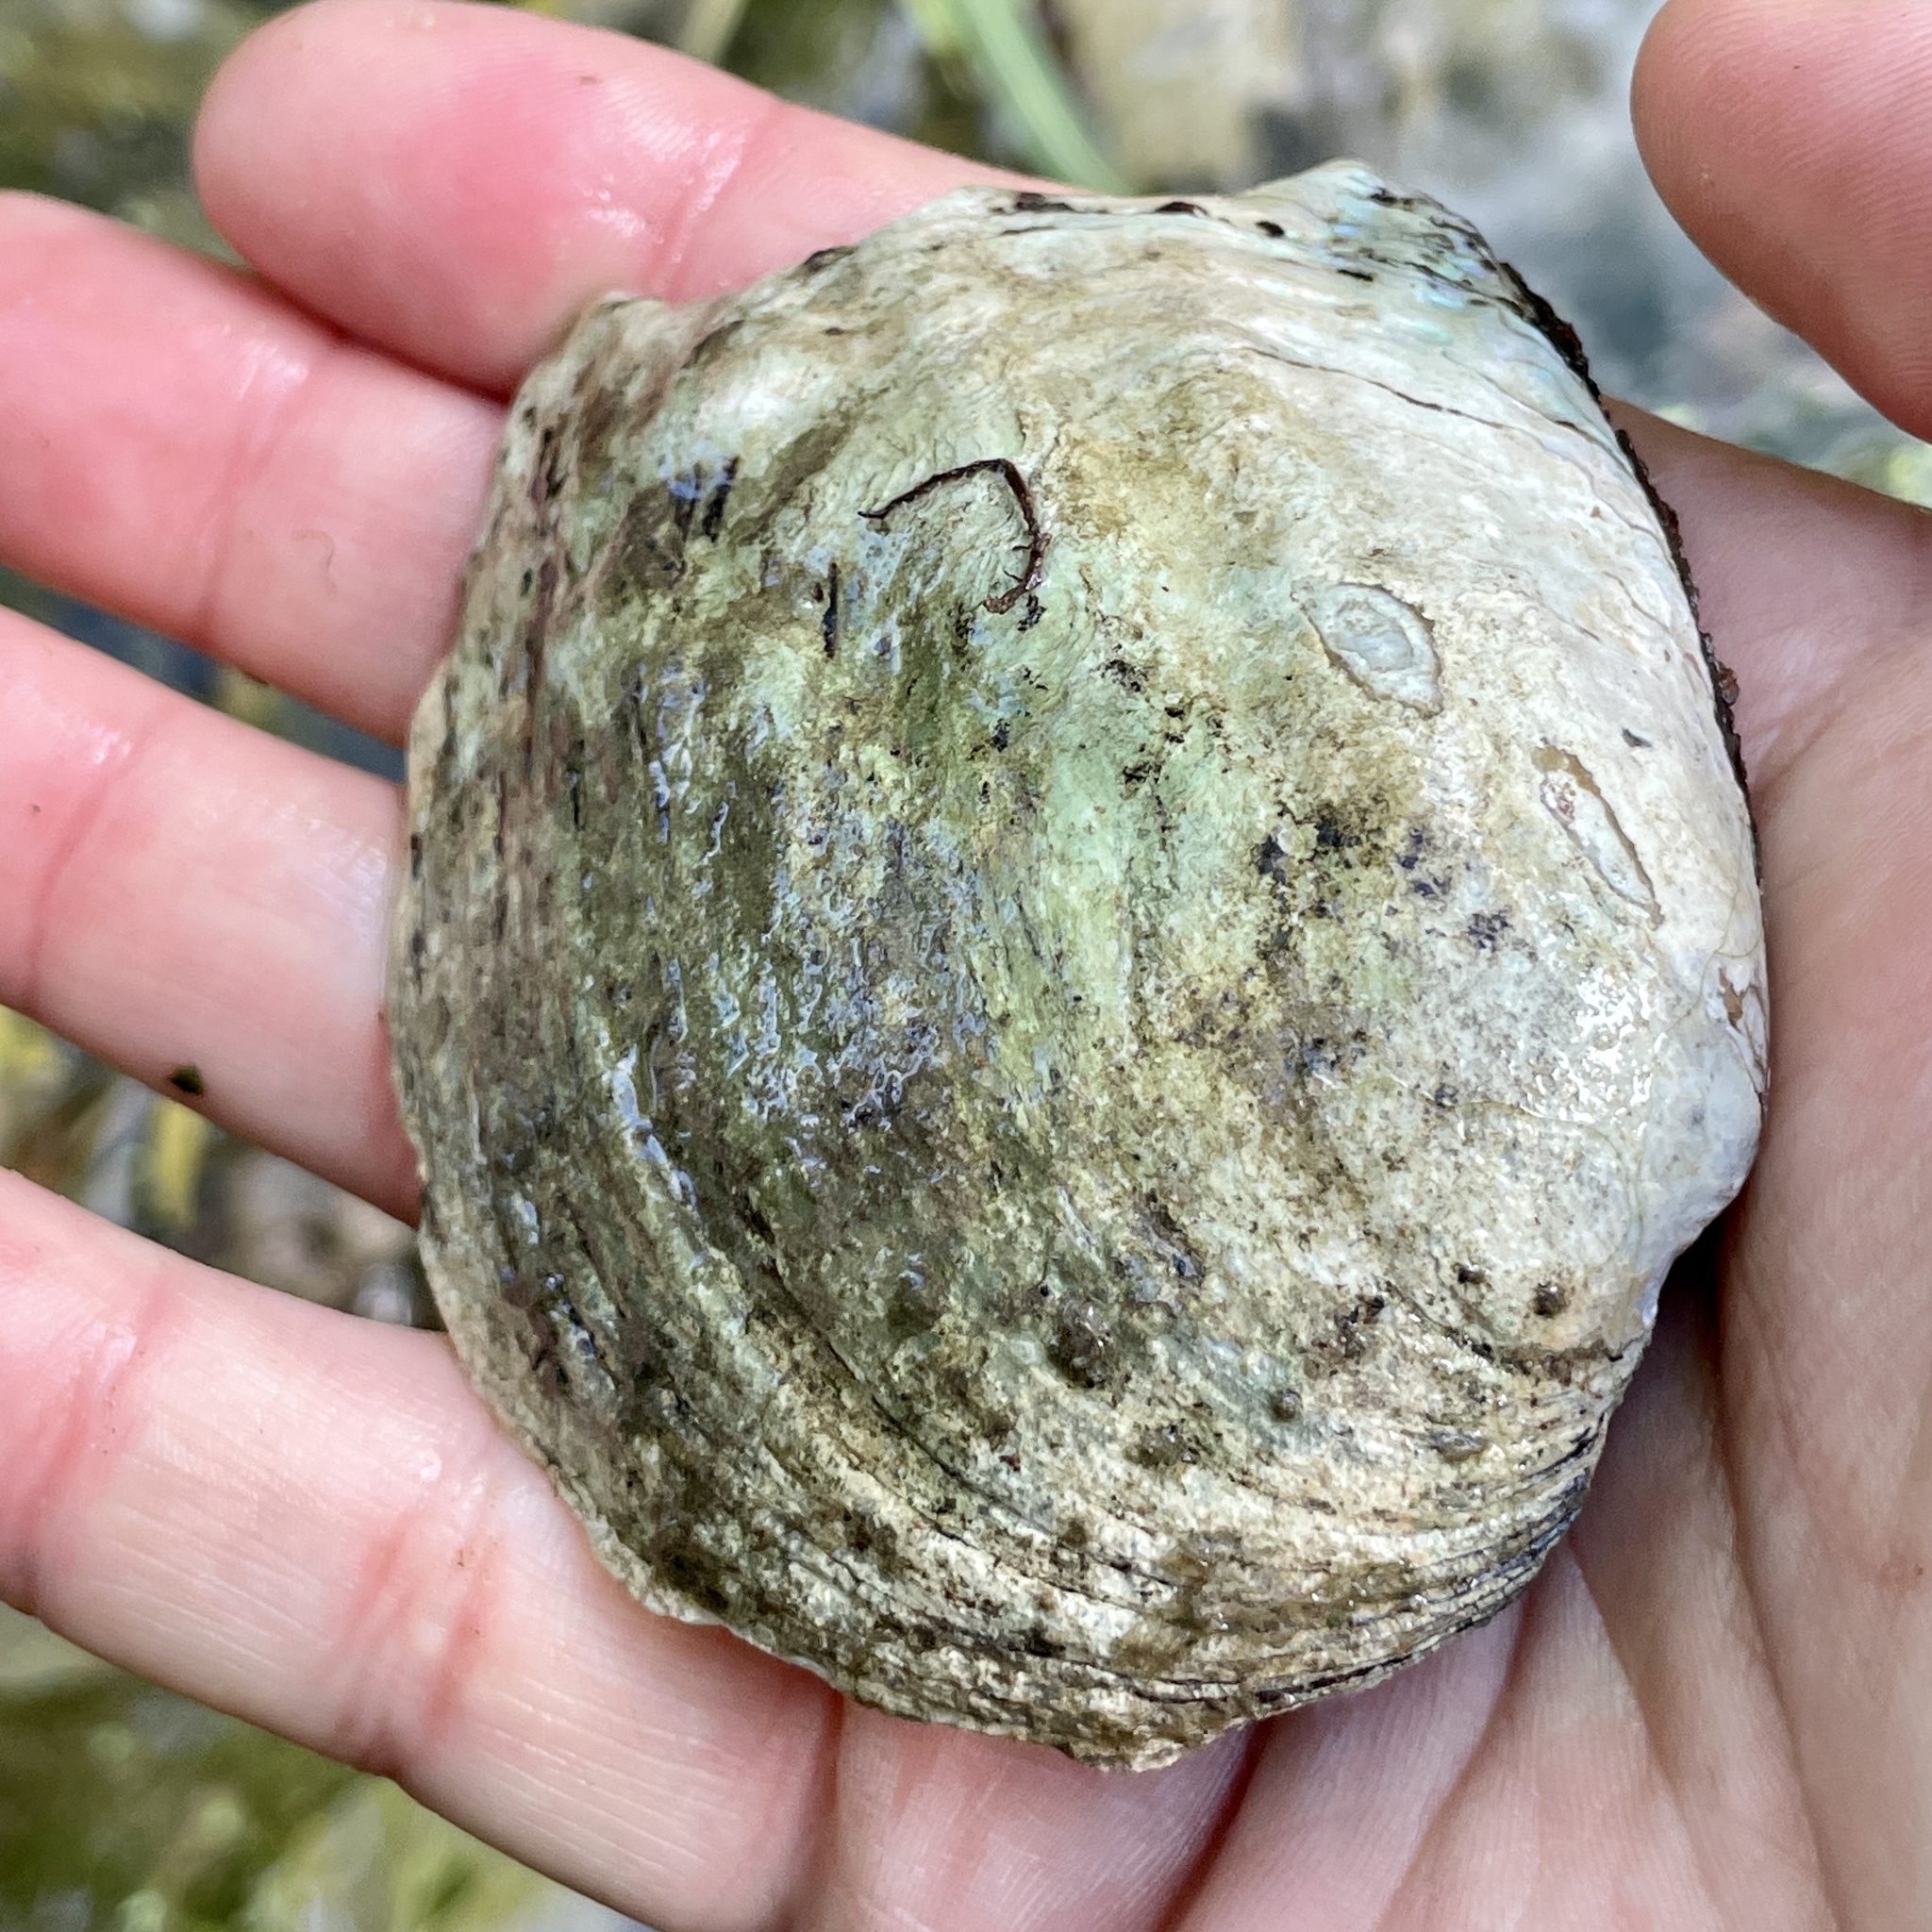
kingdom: Animalia
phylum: Mollusca
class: Bivalvia
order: Unionida
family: Unionidae
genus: Amblema
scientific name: Amblema plicata
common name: Threeridge
